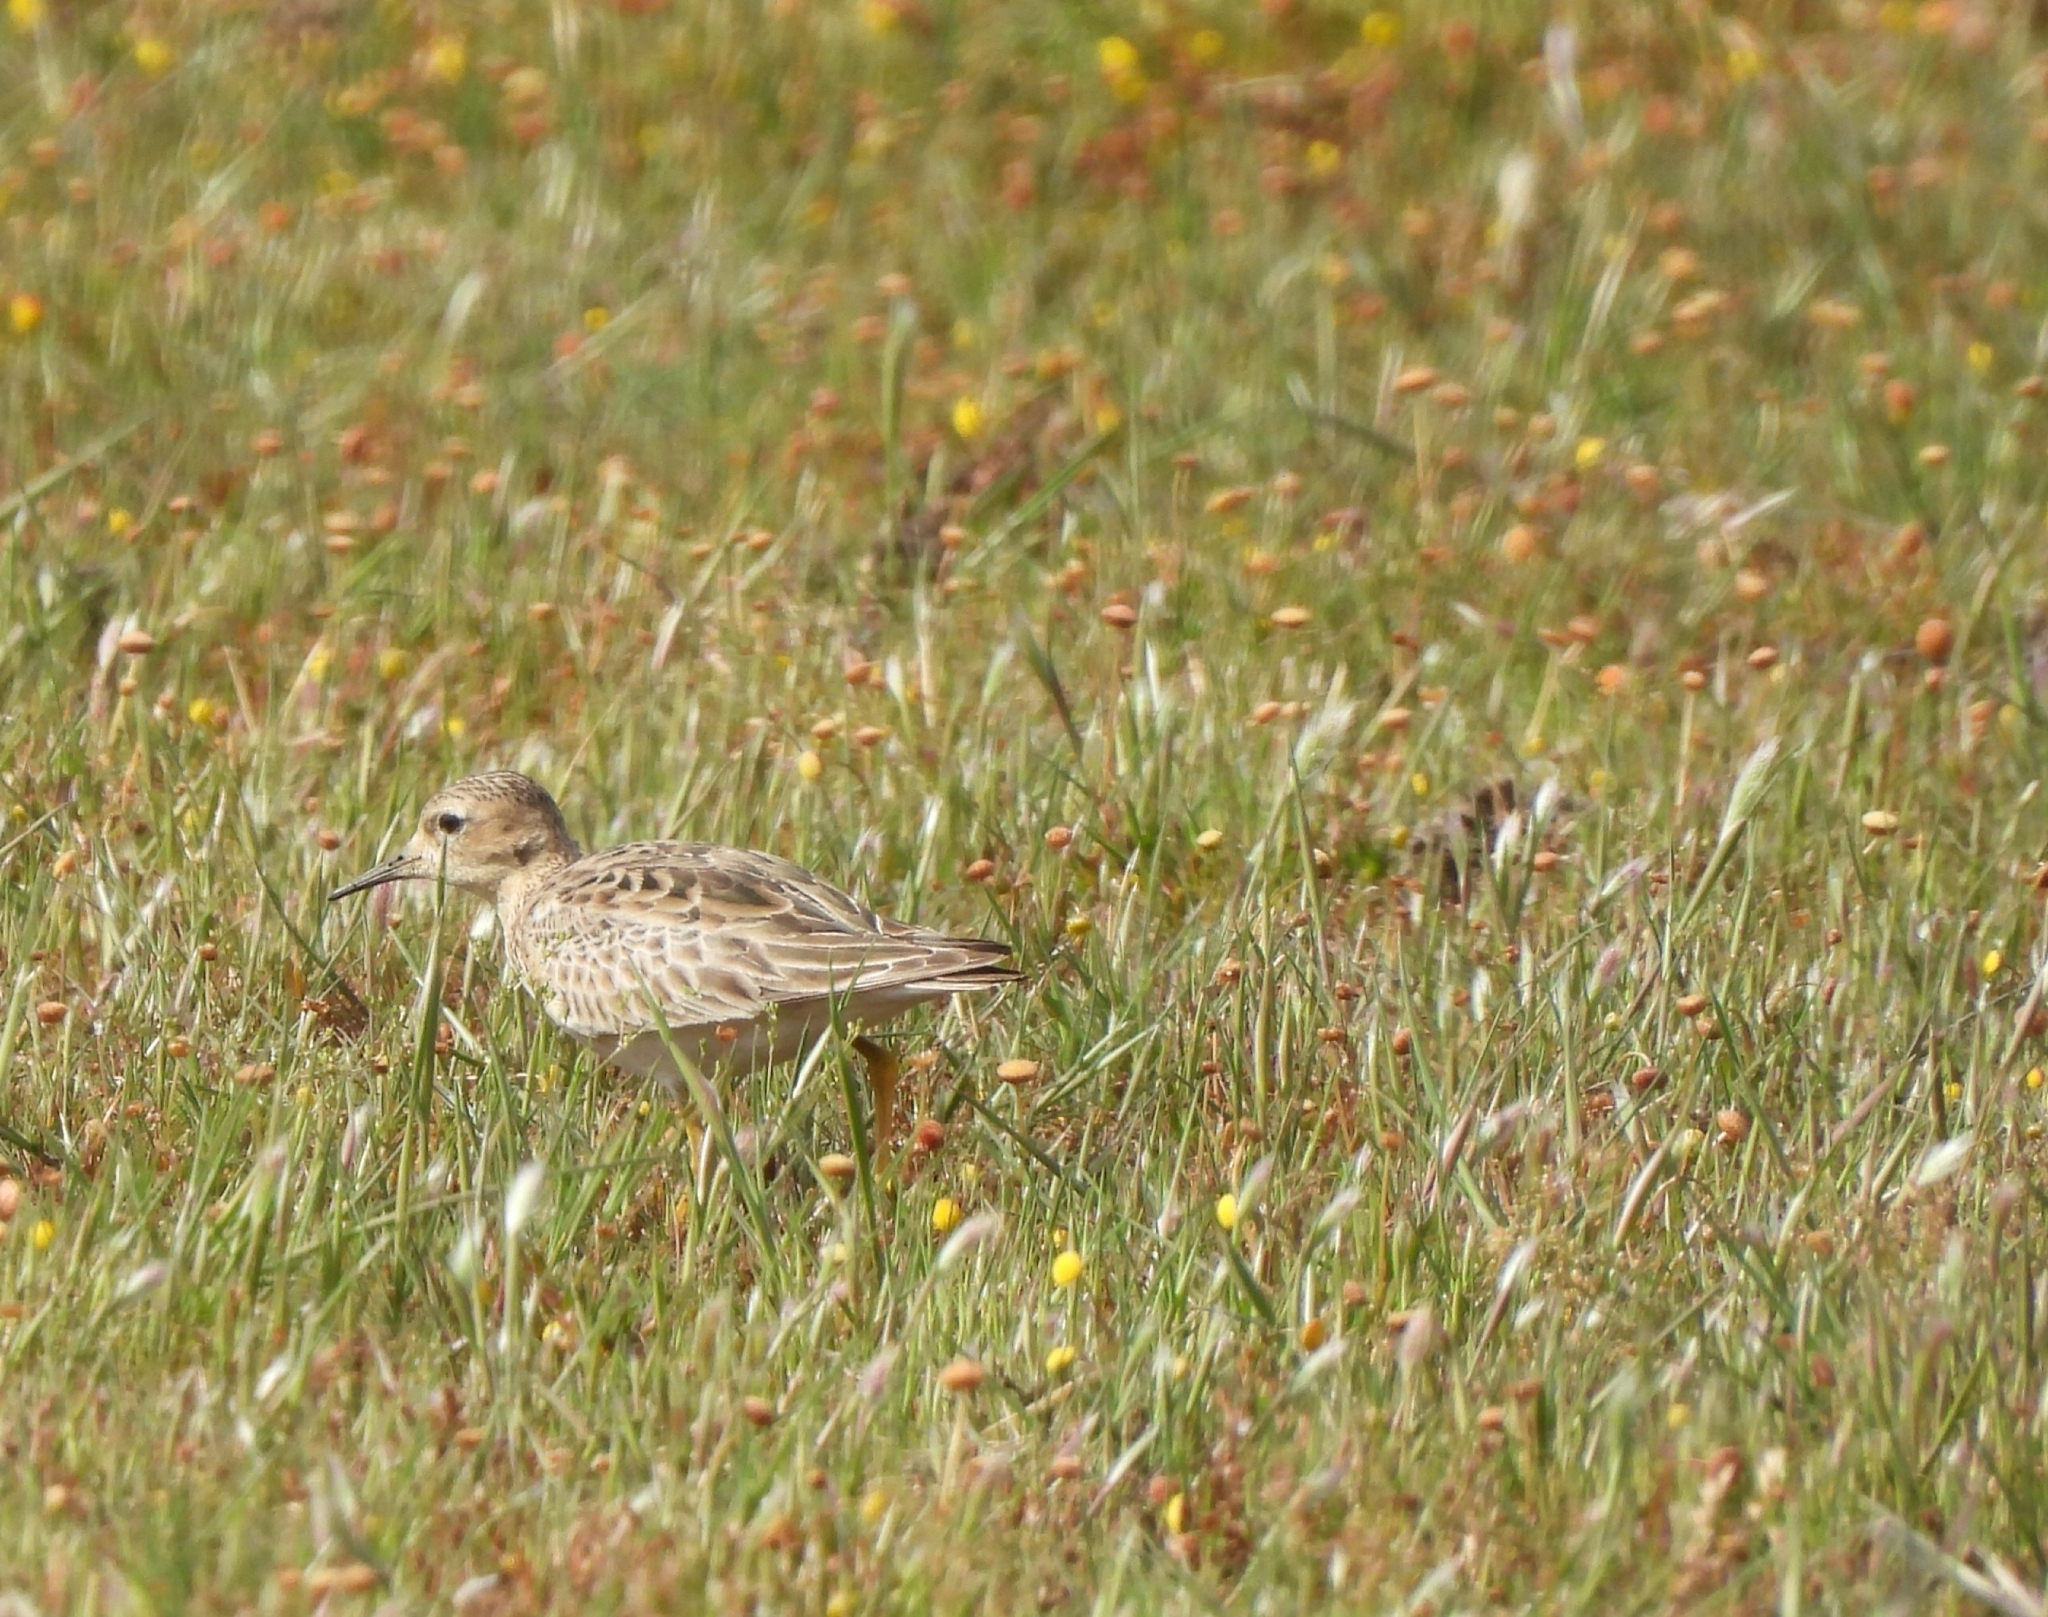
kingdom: Animalia
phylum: Chordata
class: Aves
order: Charadriiformes
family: Scolopacidae
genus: Calidris
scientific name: Calidris subruficollis
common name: Buff-breasted sandpiper
